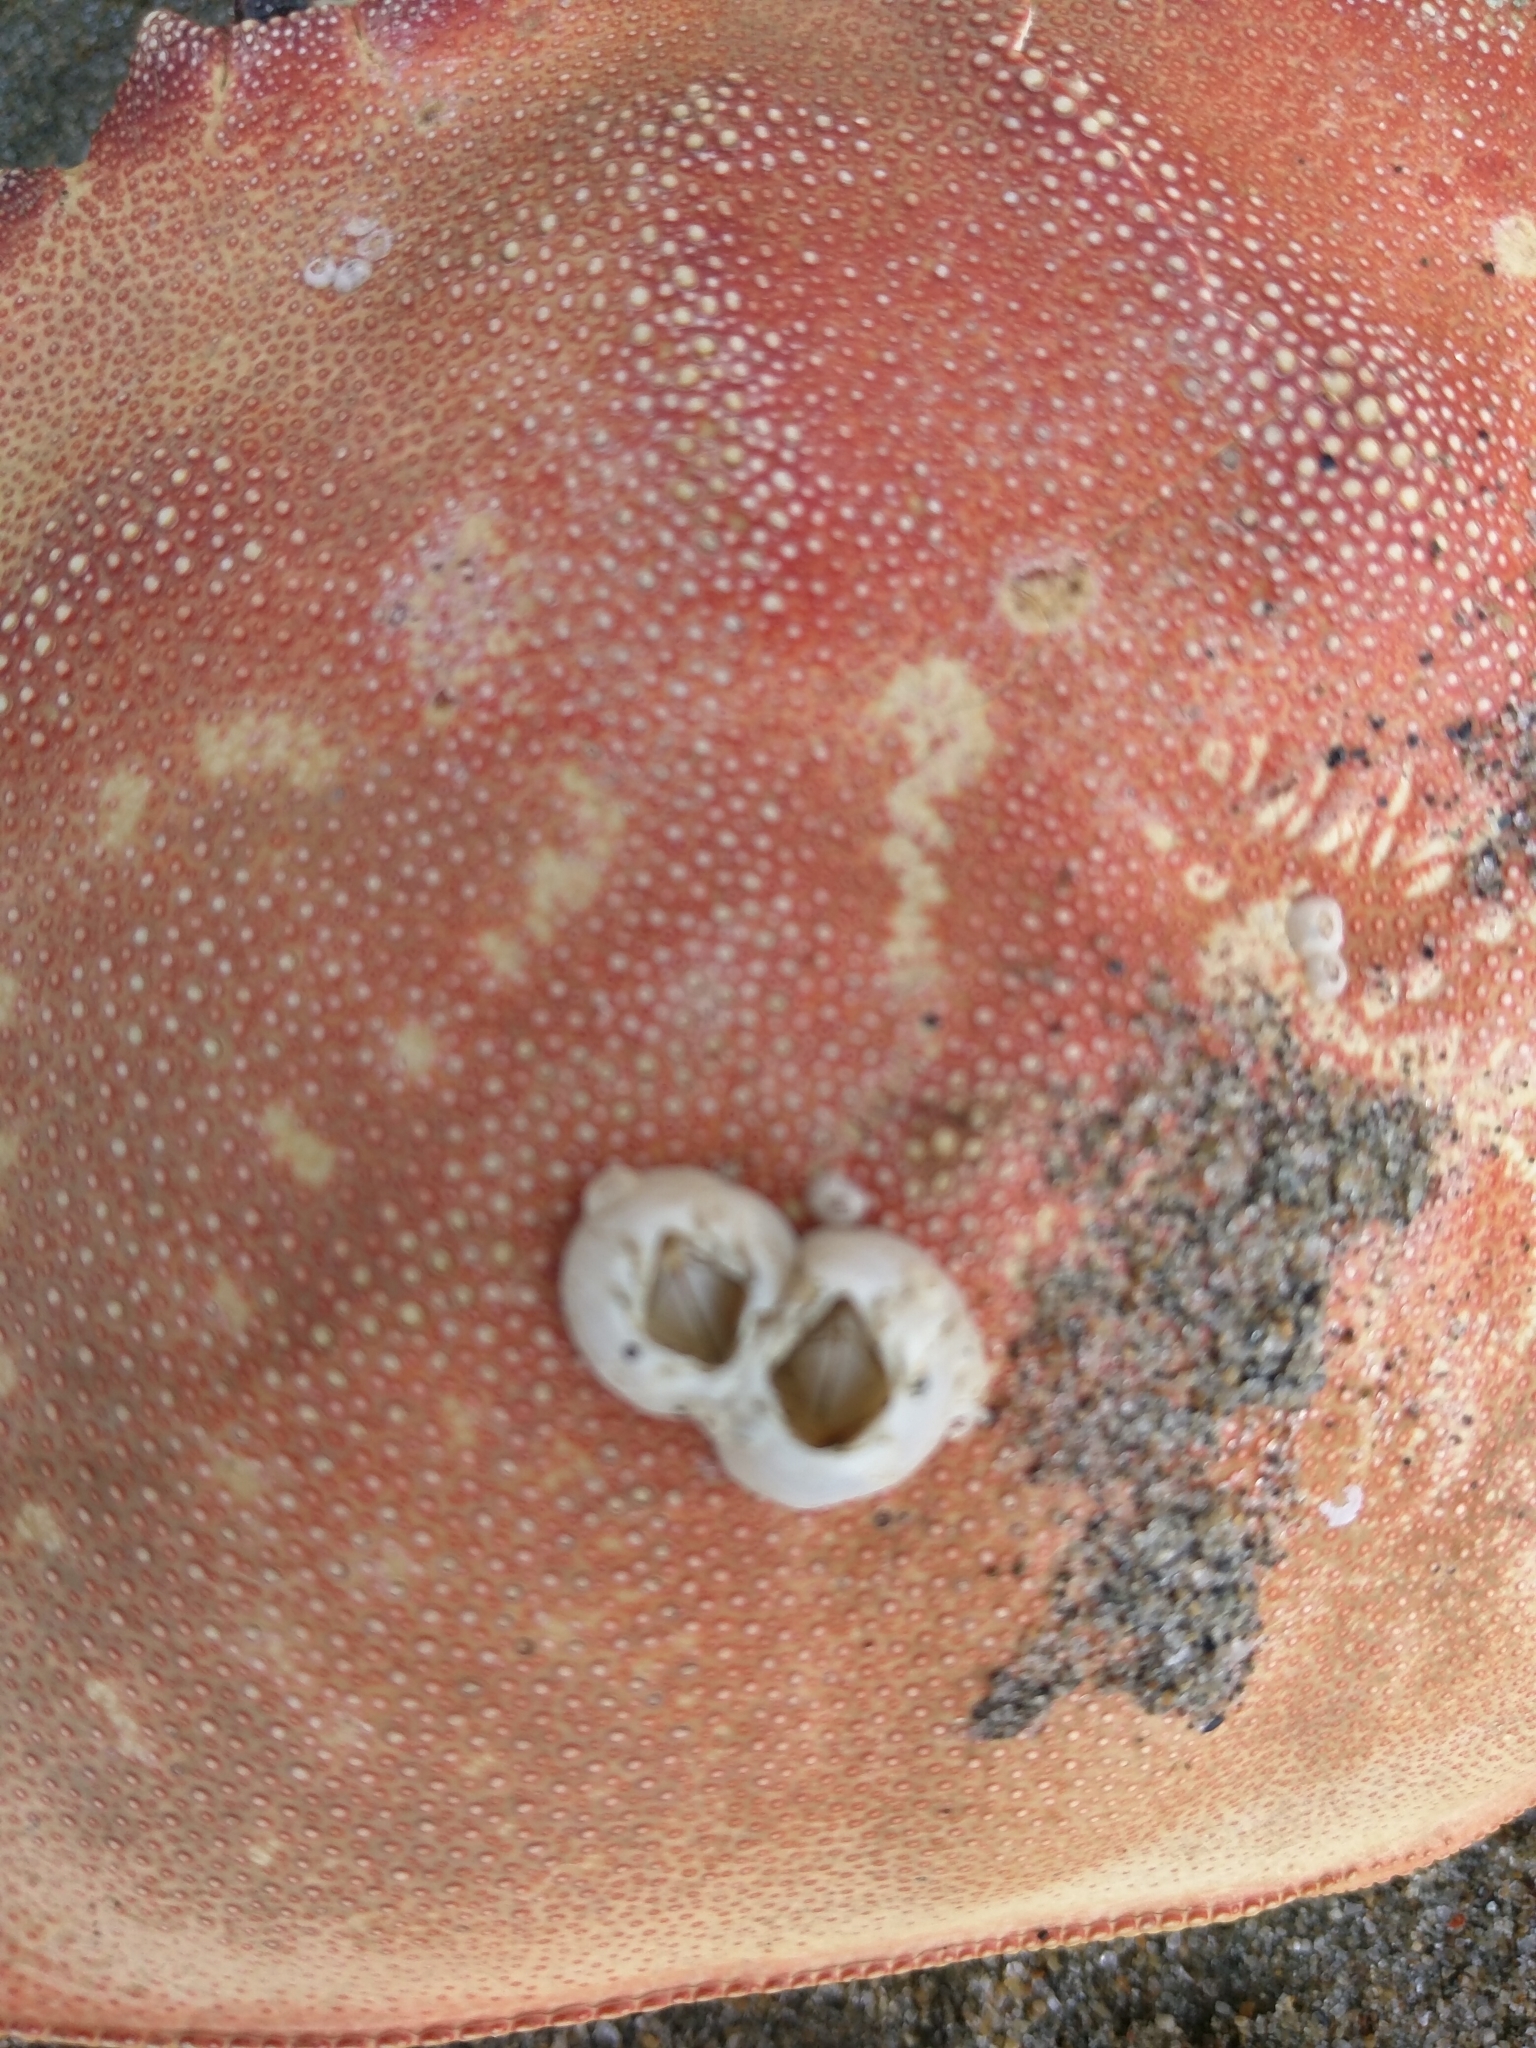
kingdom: Animalia
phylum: Arthropoda
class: Maxillopoda
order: Sessilia
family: Balanidae
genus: Amphibalanus
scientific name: Amphibalanus improvisus
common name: Bay barnacle
